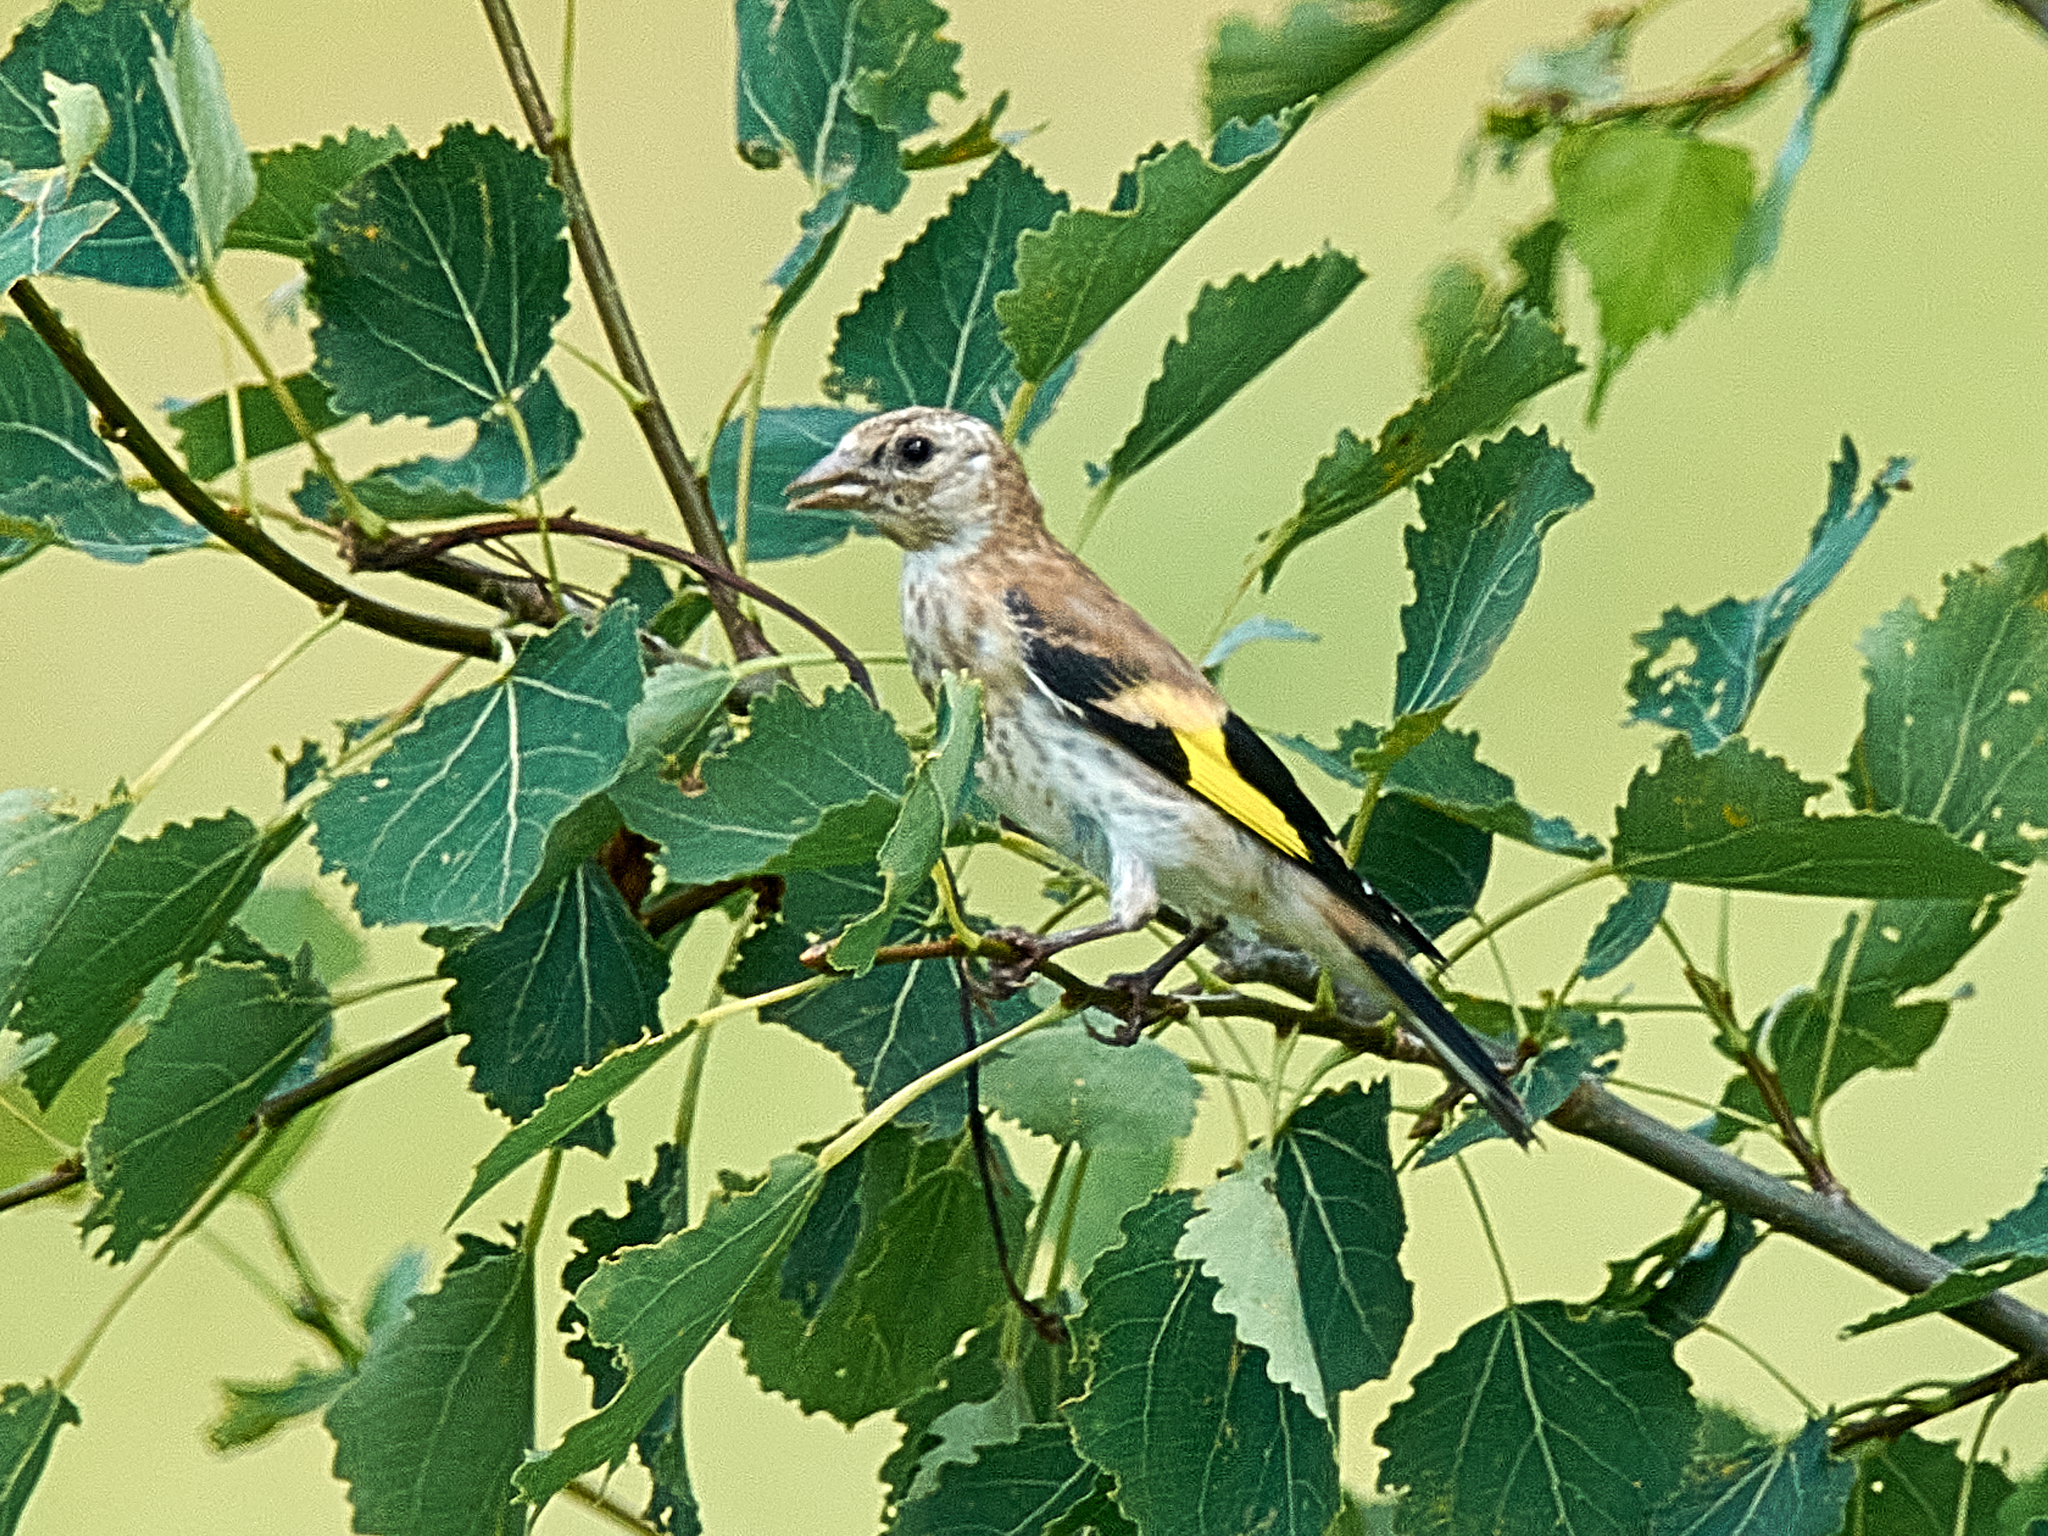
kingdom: Animalia
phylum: Chordata
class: Aves
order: Passeriformes
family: Fringillidae
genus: Carduelis
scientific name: Carduelis carduelis
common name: European goldfinch
